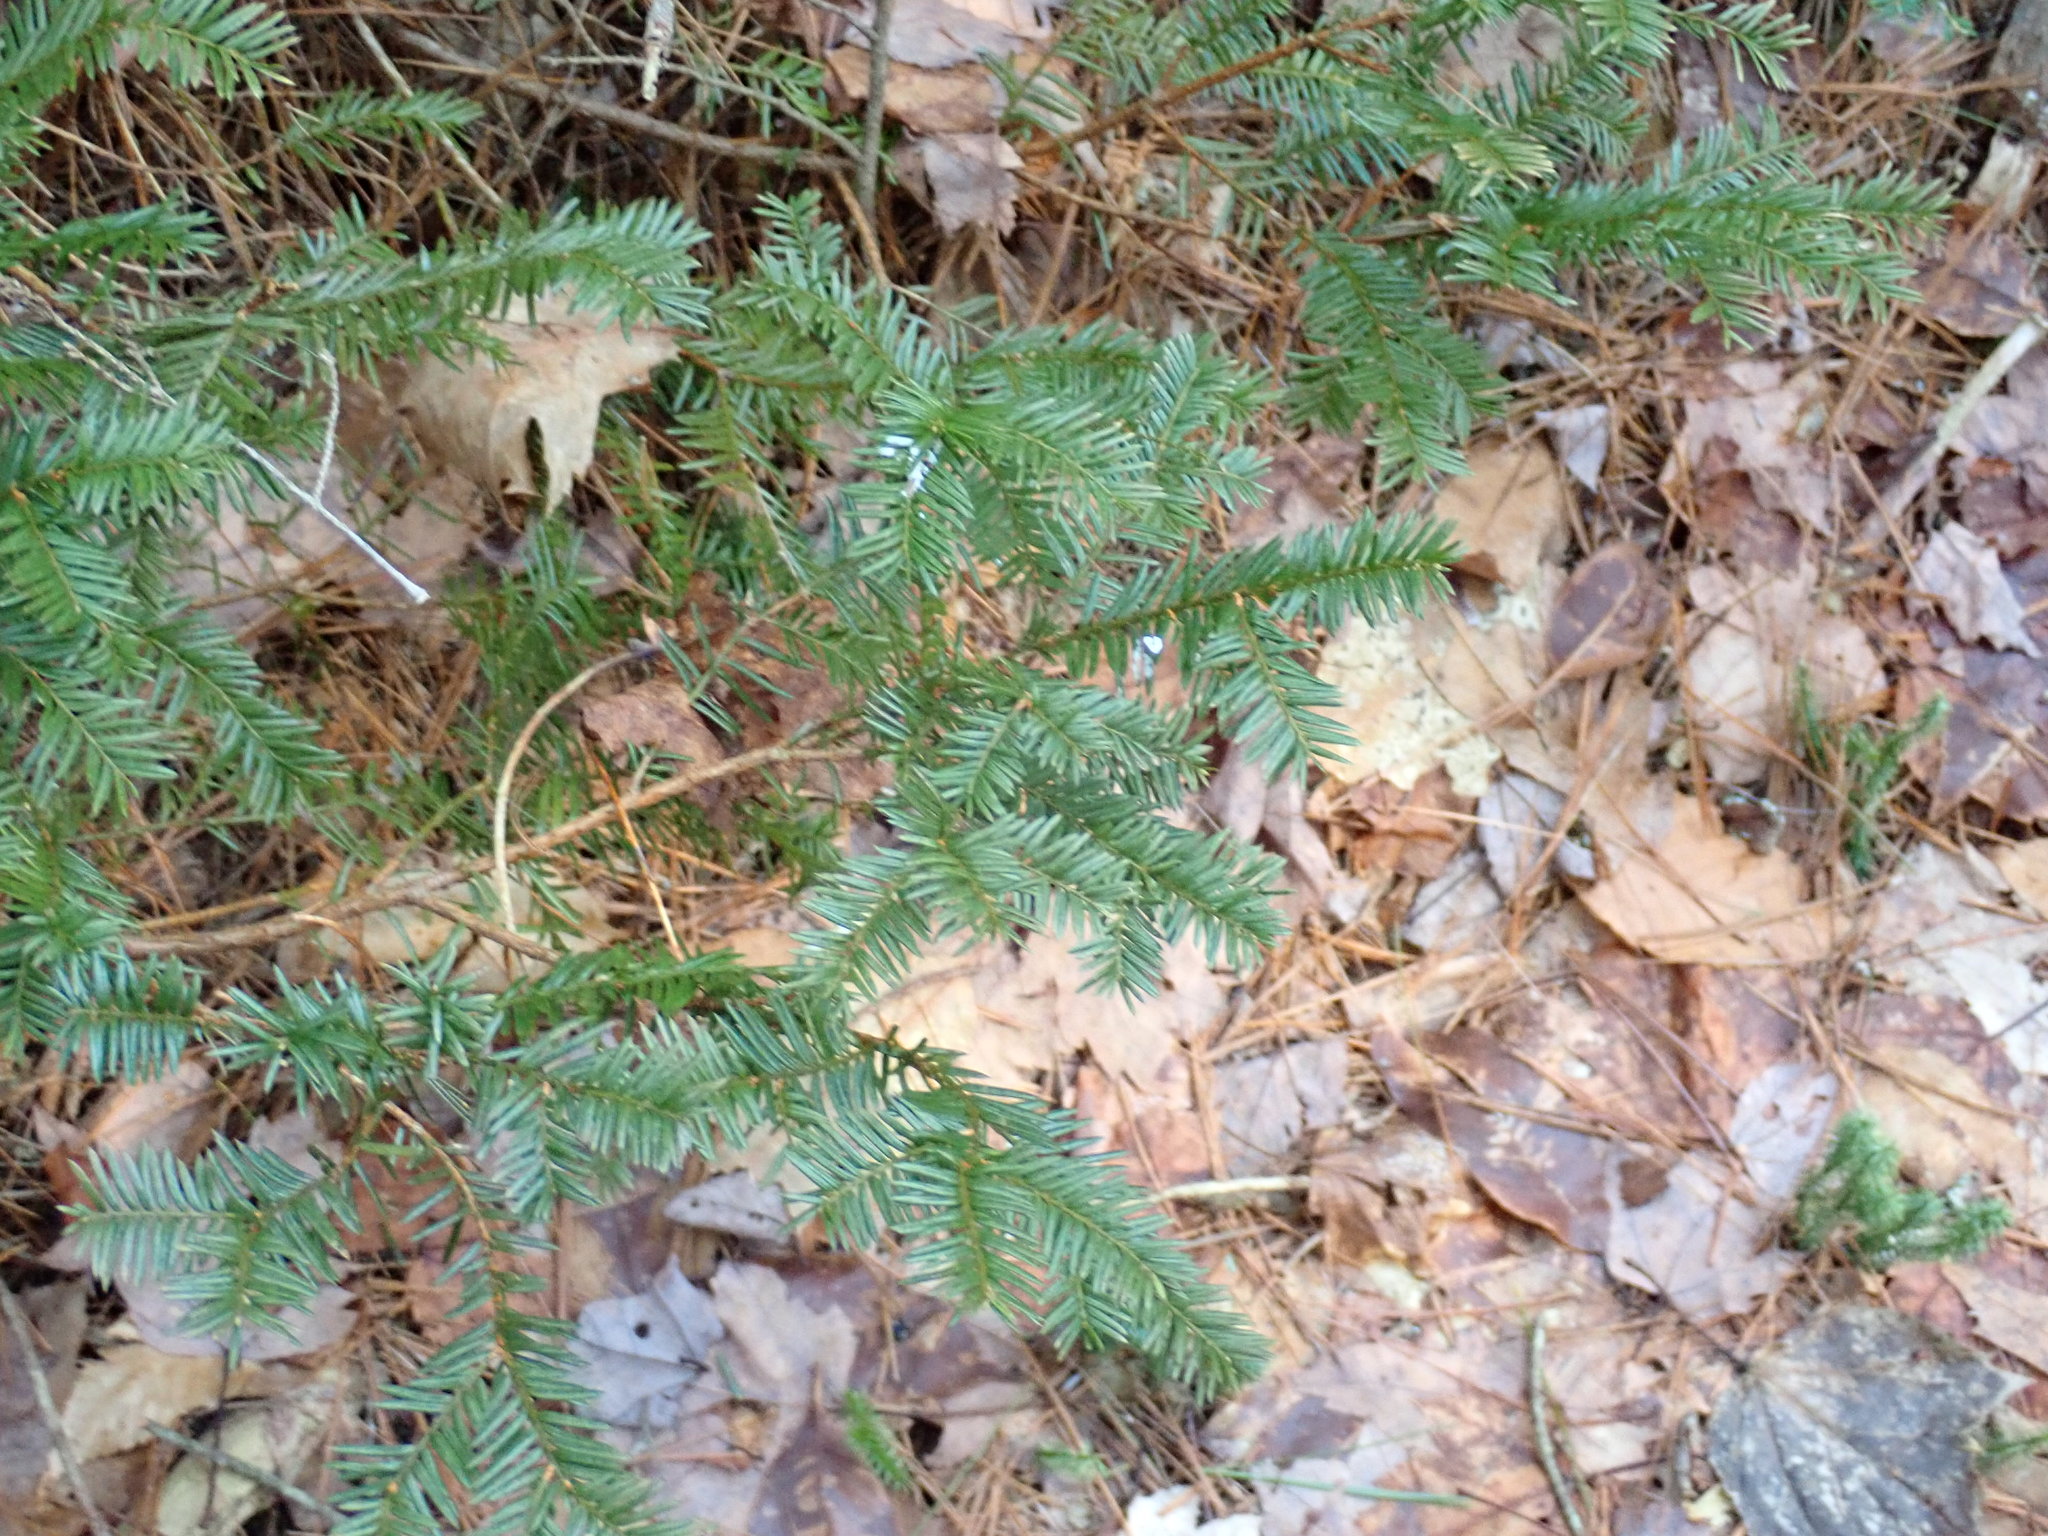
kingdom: Plantae
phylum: Tracheophyta
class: Pinopsida
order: Pinales
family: Taxaceae
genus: Taxus
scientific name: Taxus canadensis
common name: American yew
